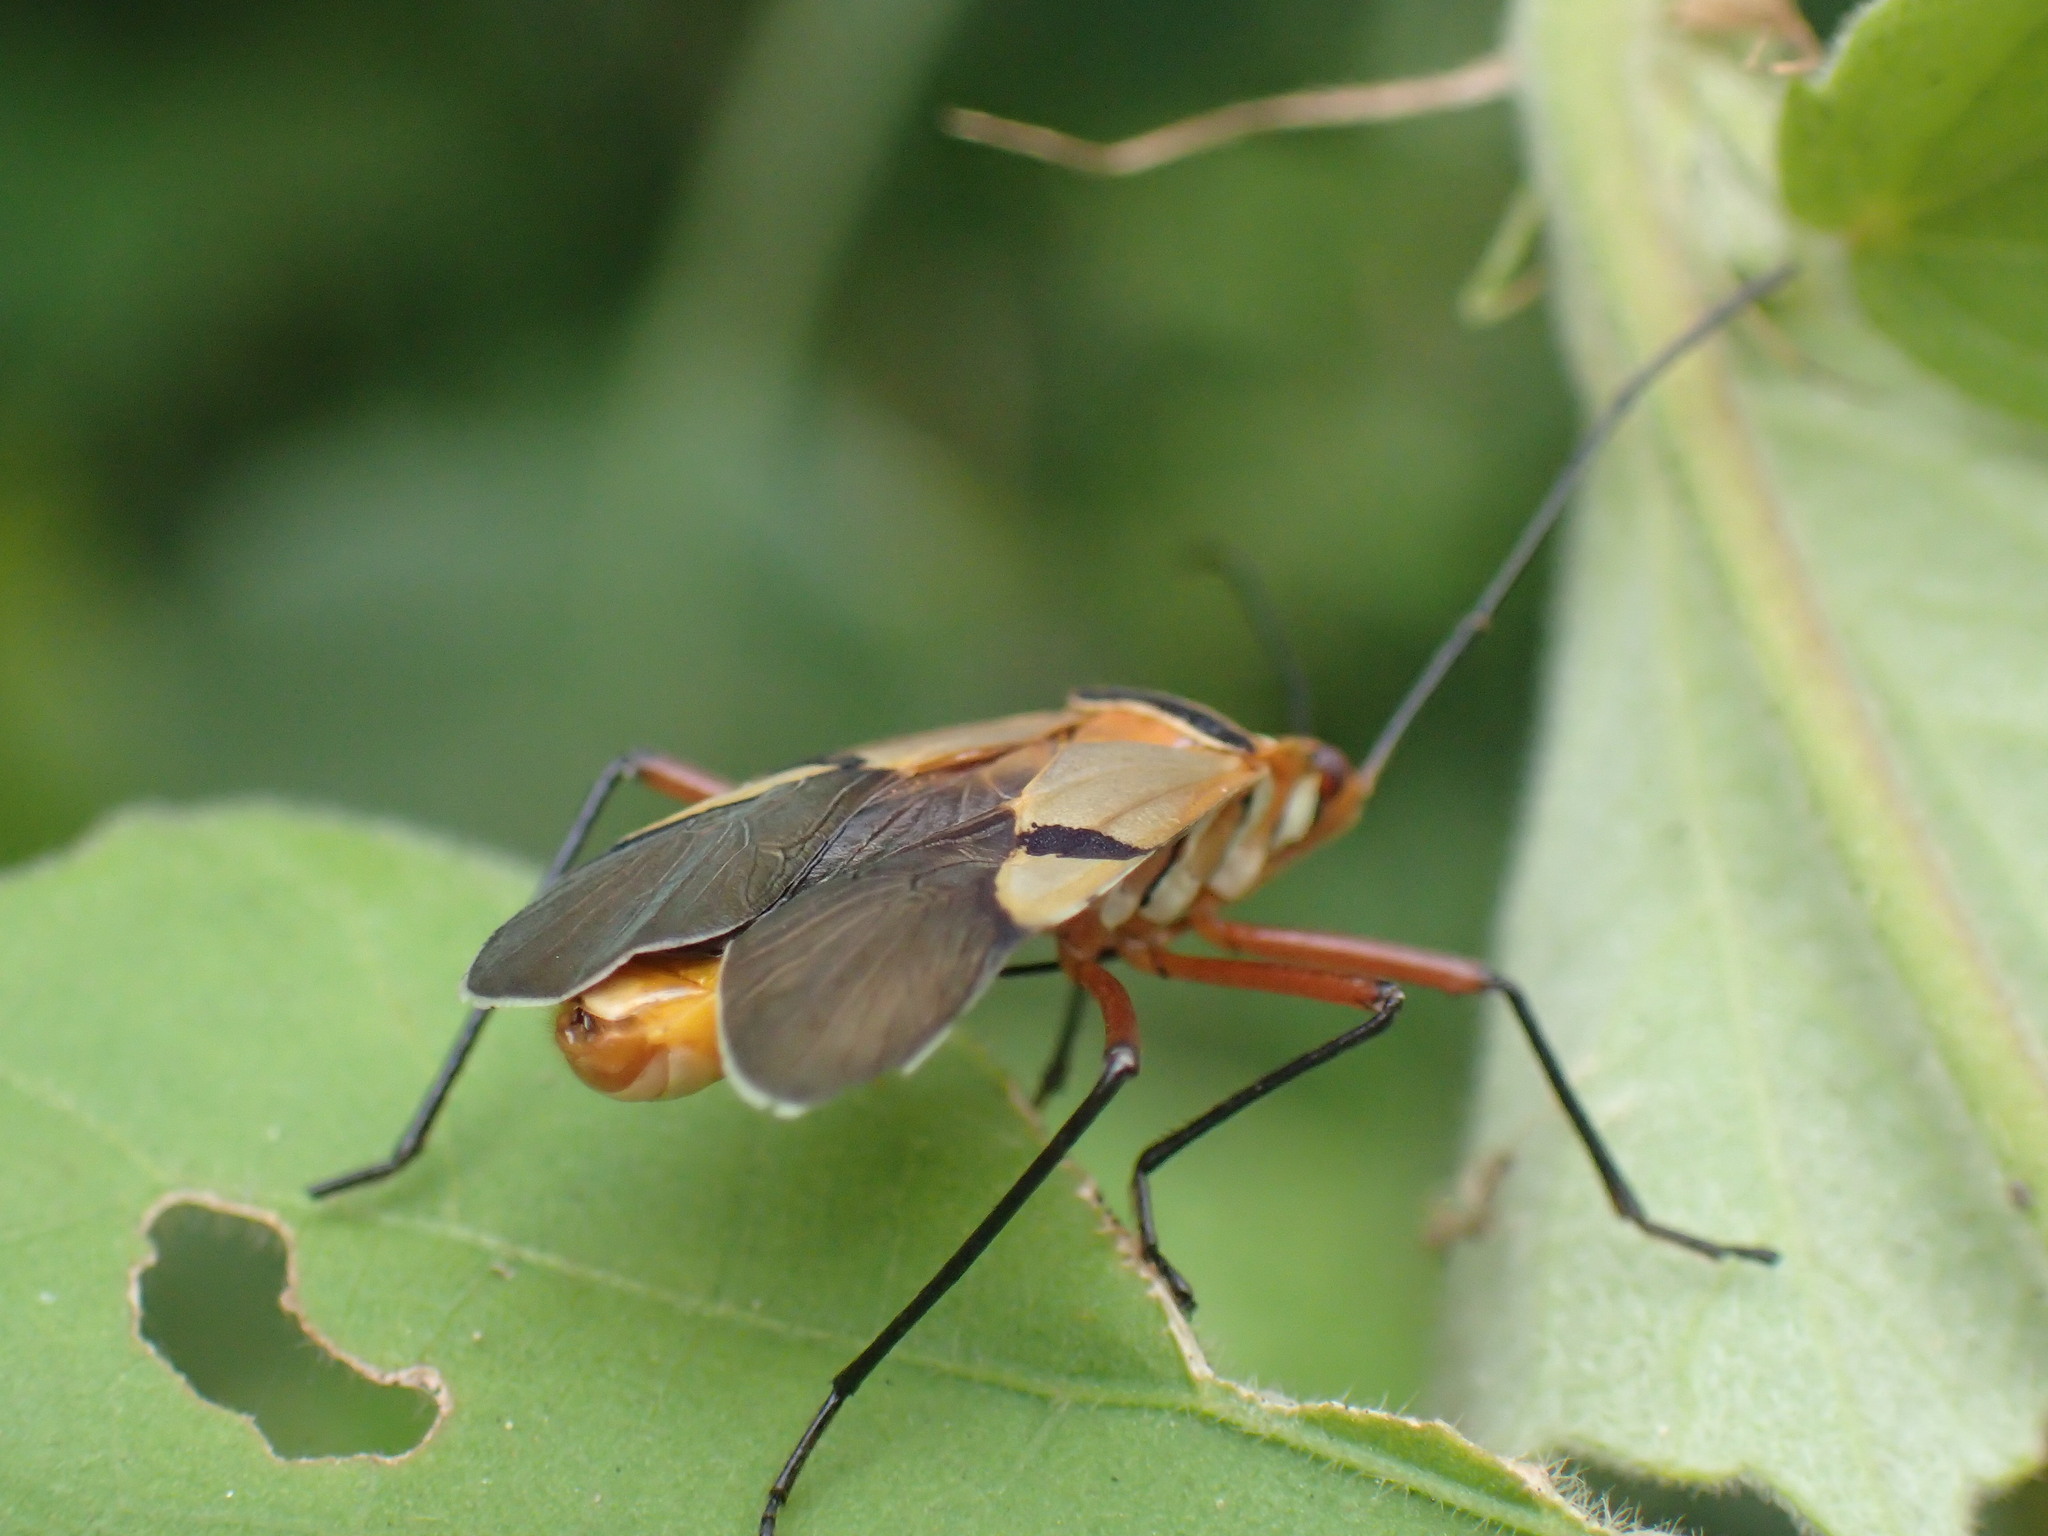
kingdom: Animalia
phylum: Arthropoda
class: Insecta
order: Hemiptera
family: Pyrrhocoridae
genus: Dysdercus
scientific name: Dysdercus
